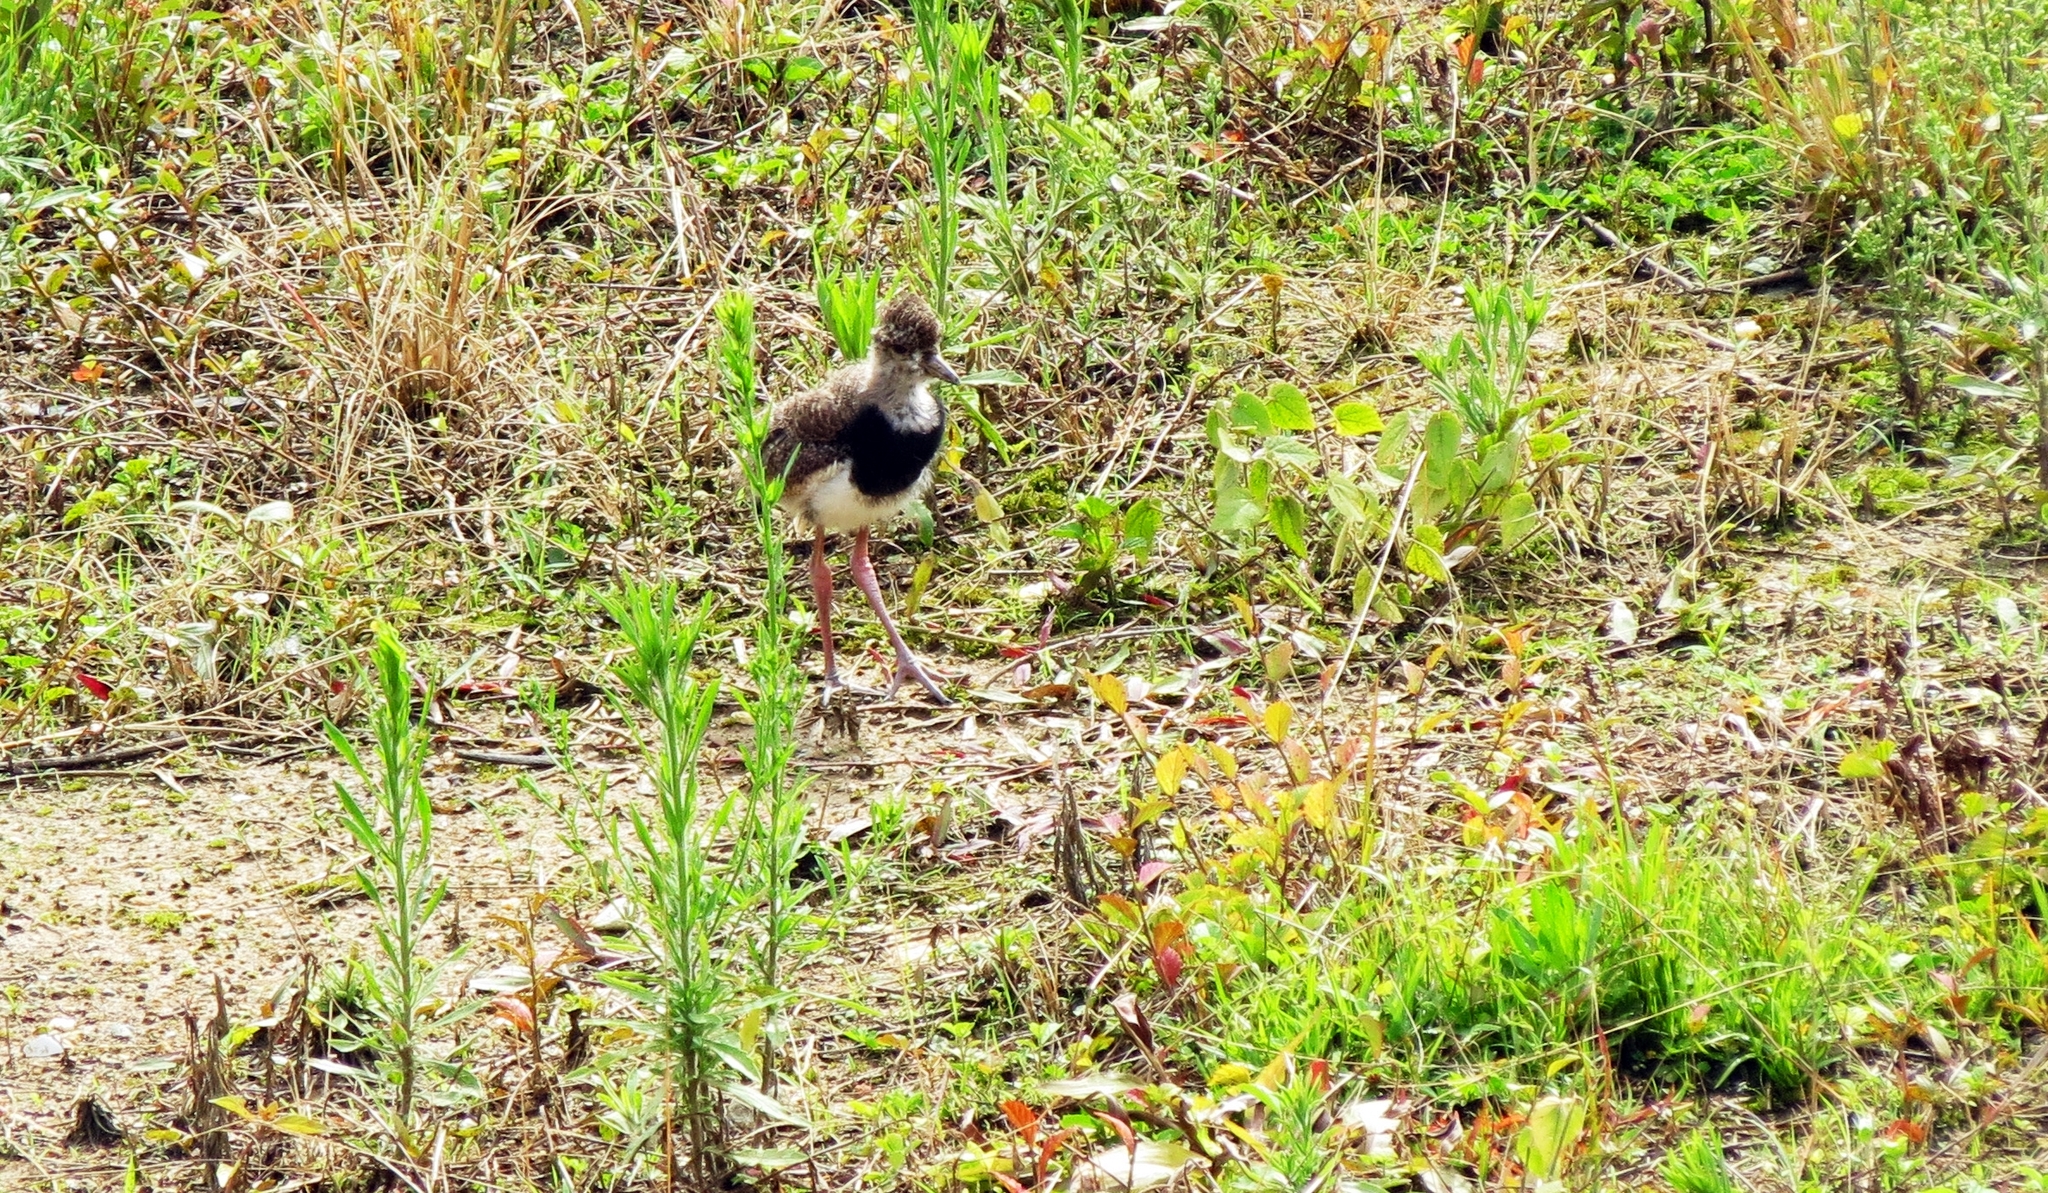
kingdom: Animalia
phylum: Chordata
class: Aves
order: Charadriiformes
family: Charadriidae
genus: Vanellus
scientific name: Vanellus chilensis
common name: Southern lapwing
